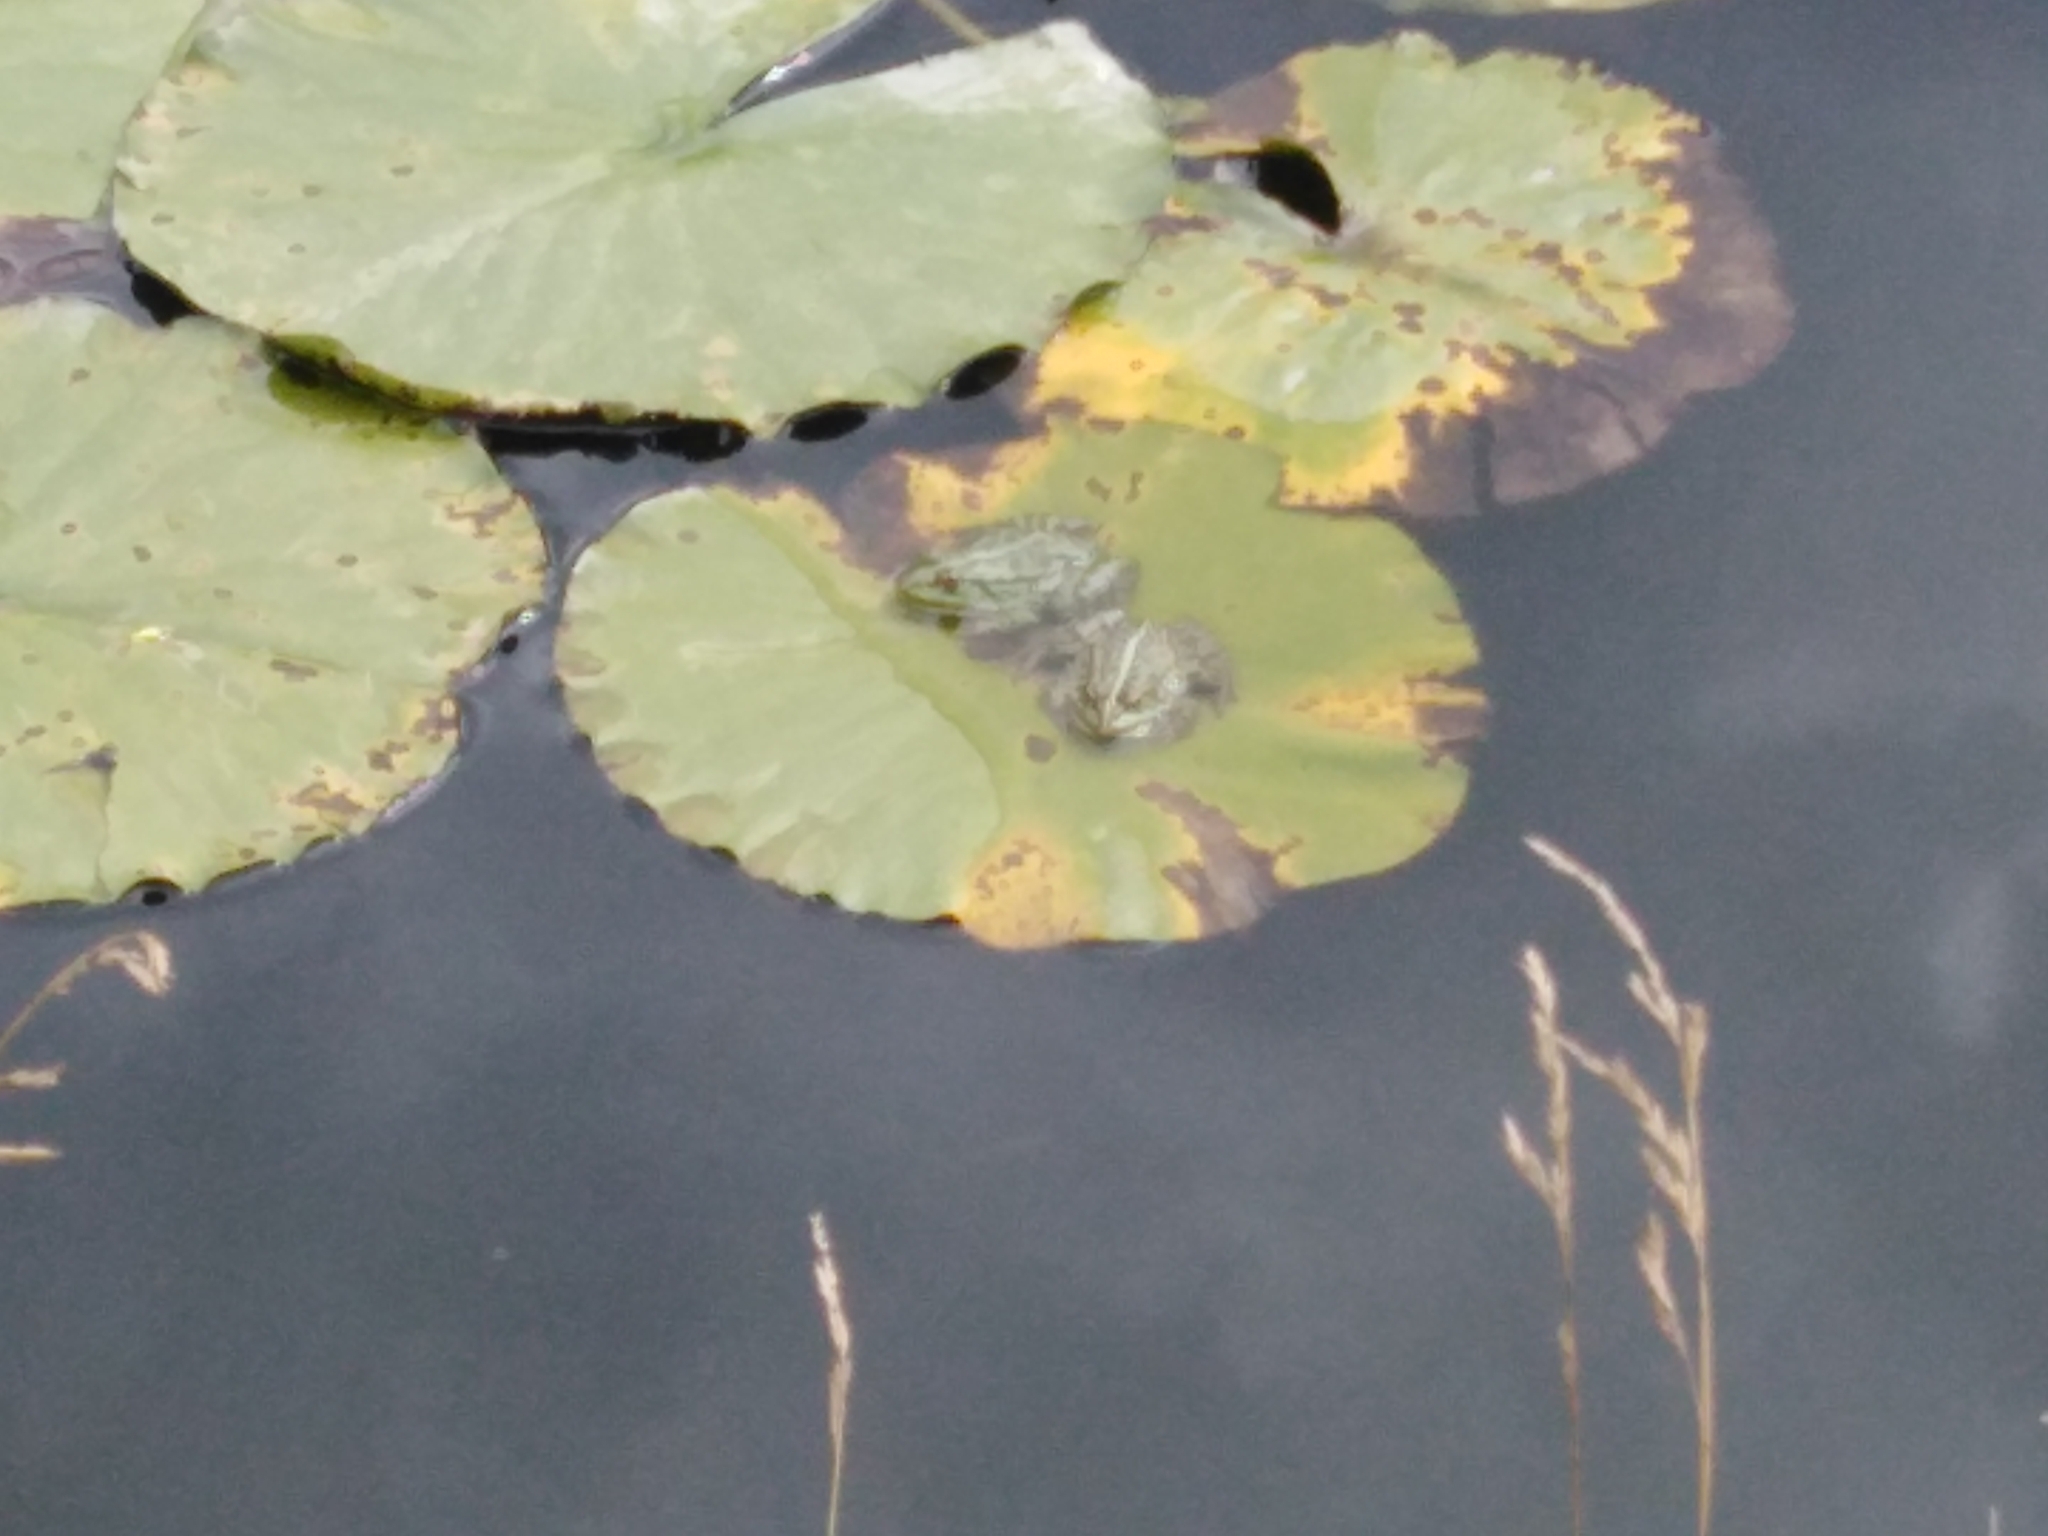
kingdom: Animalia
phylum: Chordata
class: Amphibia
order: Anura
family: Ranidae
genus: Pelophylax
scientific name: Pelophylax
